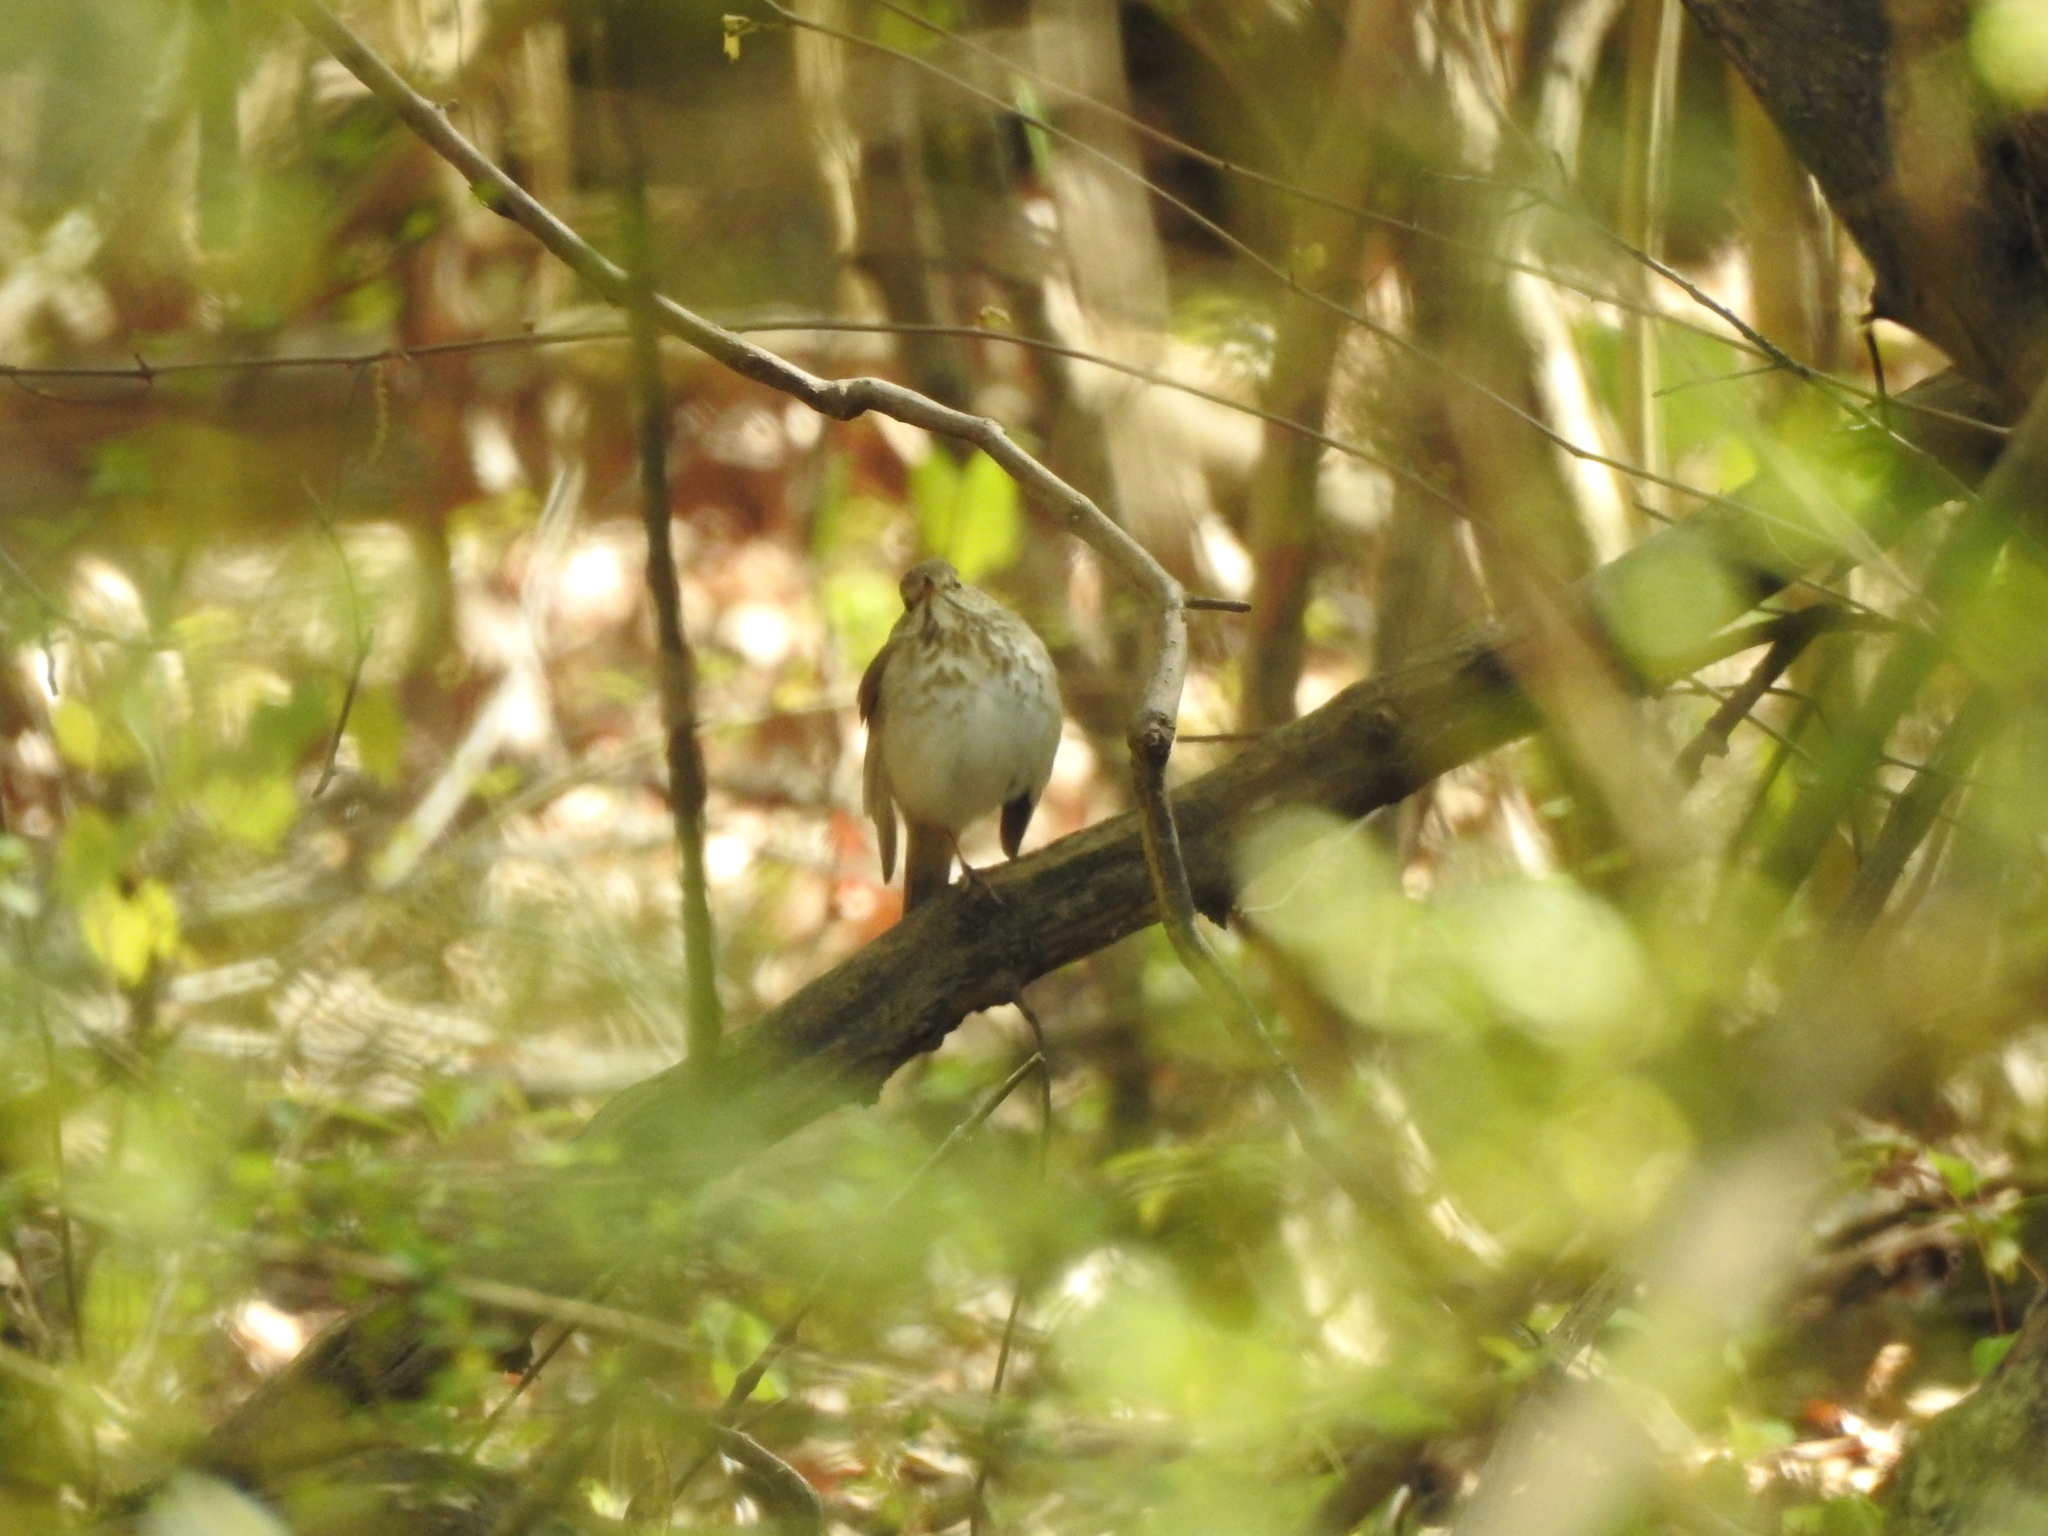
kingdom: Animalia
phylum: Chordata
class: Aves
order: Passeriformes
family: Turdidae
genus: Catharus
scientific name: Catharus guttatus
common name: Hermit thrush
